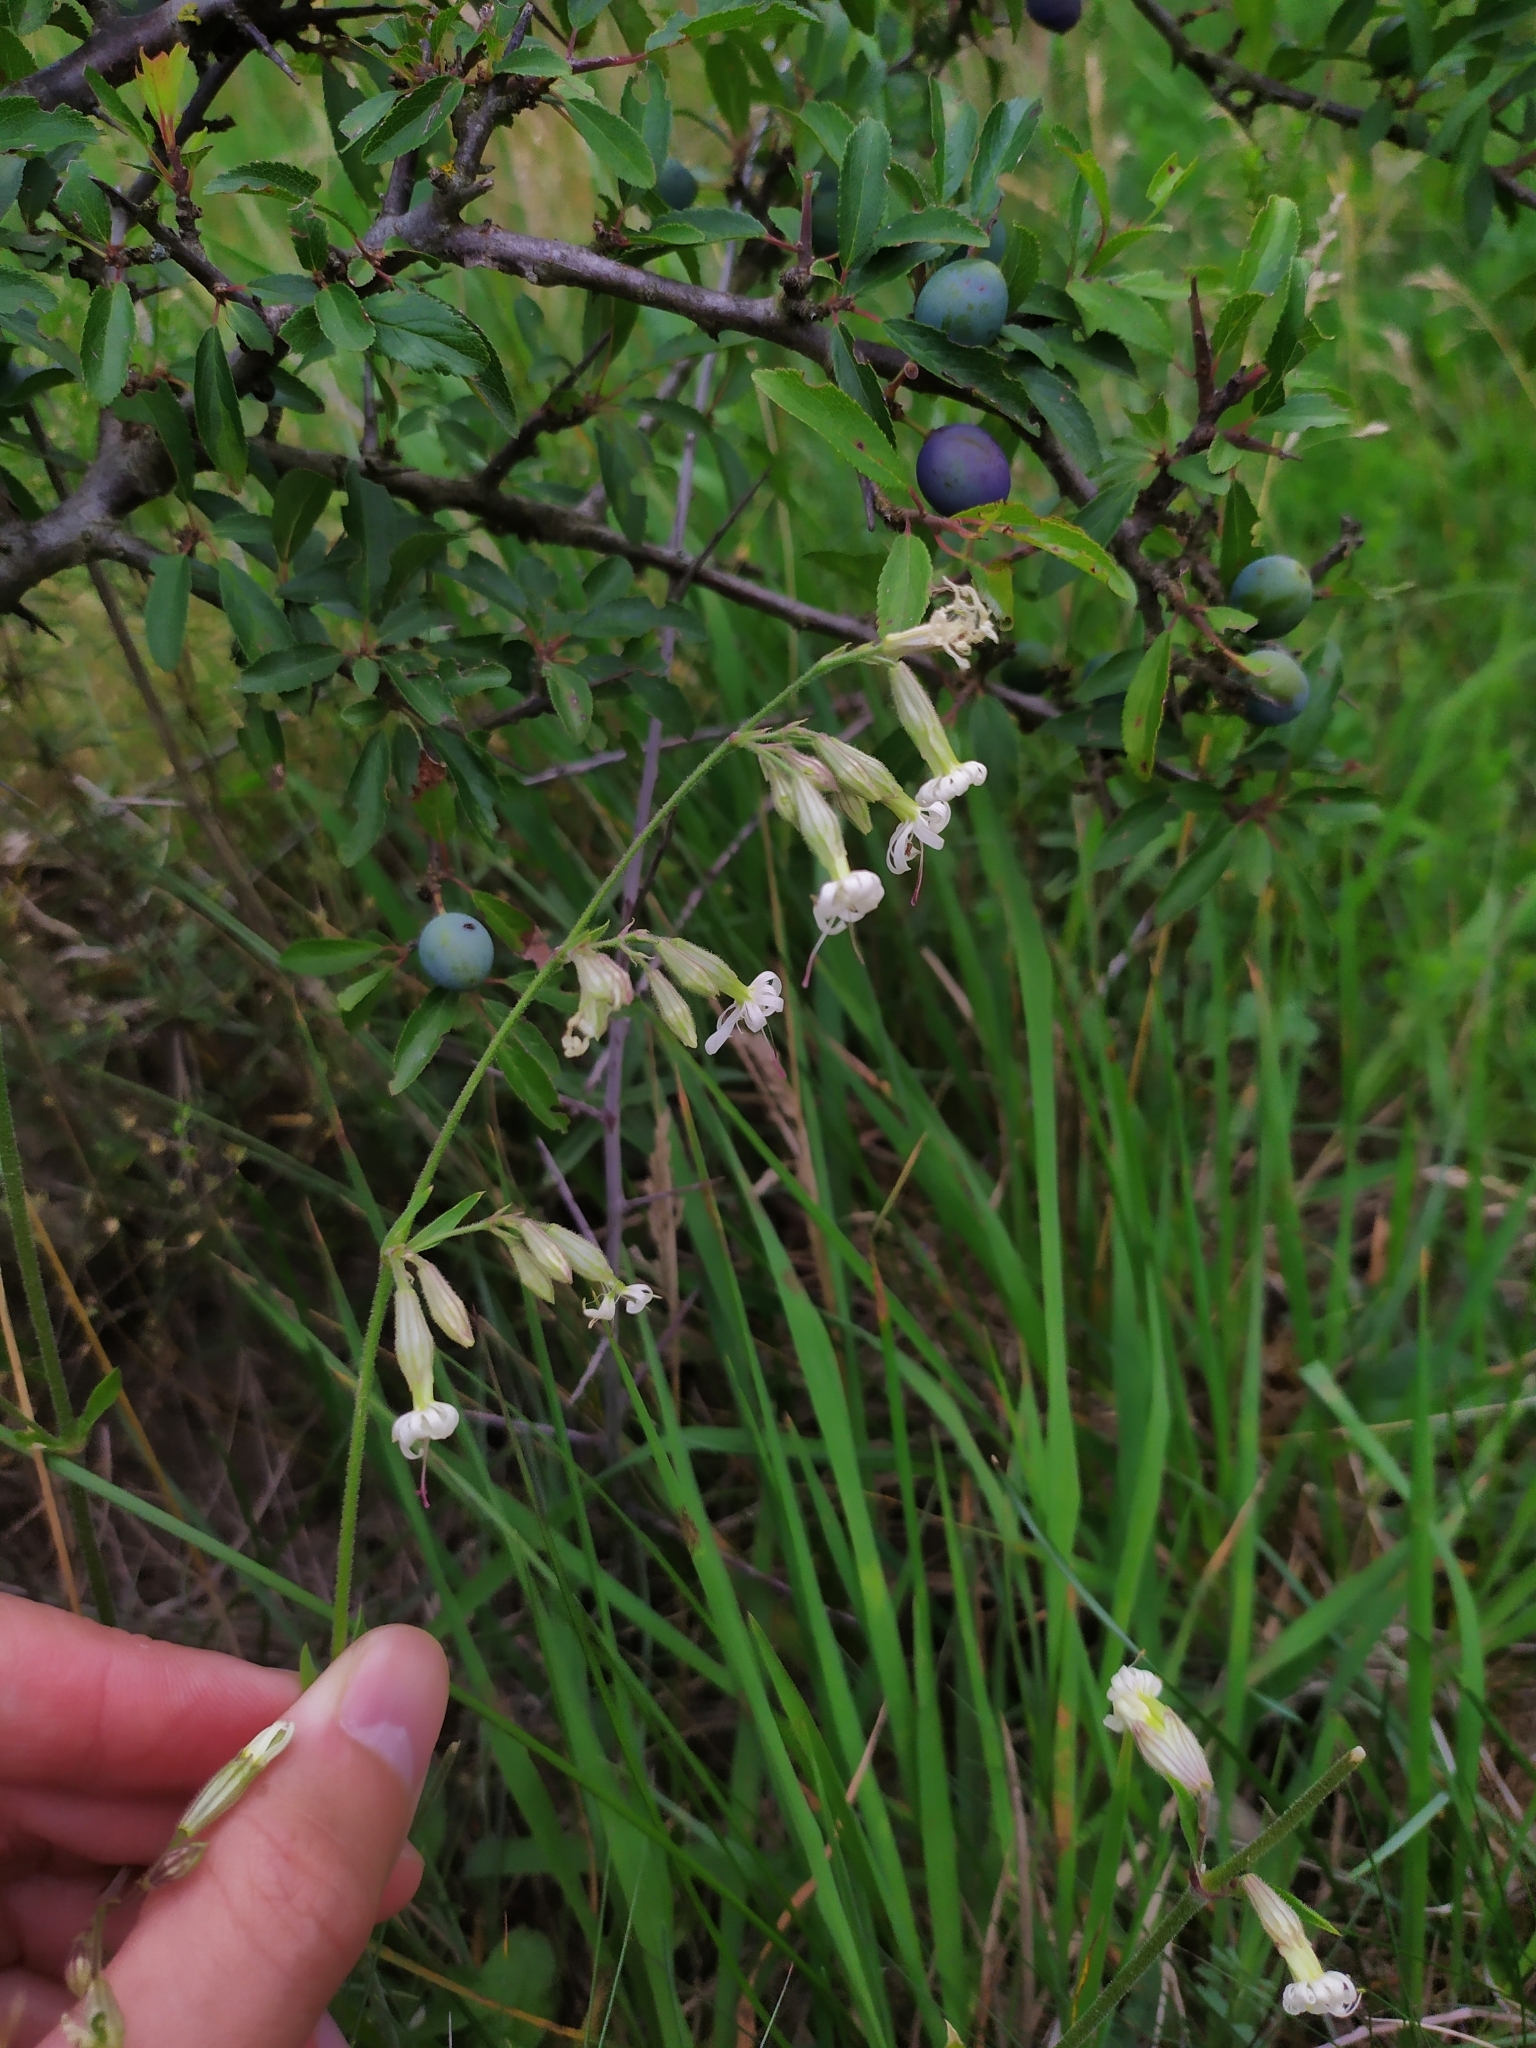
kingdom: Plantae
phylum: Tracheophyta
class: Magnoliopsida
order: Caryophyllales
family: Caryophyllaceae
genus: Silene
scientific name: Silene nutans
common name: Nottingham catchfly
